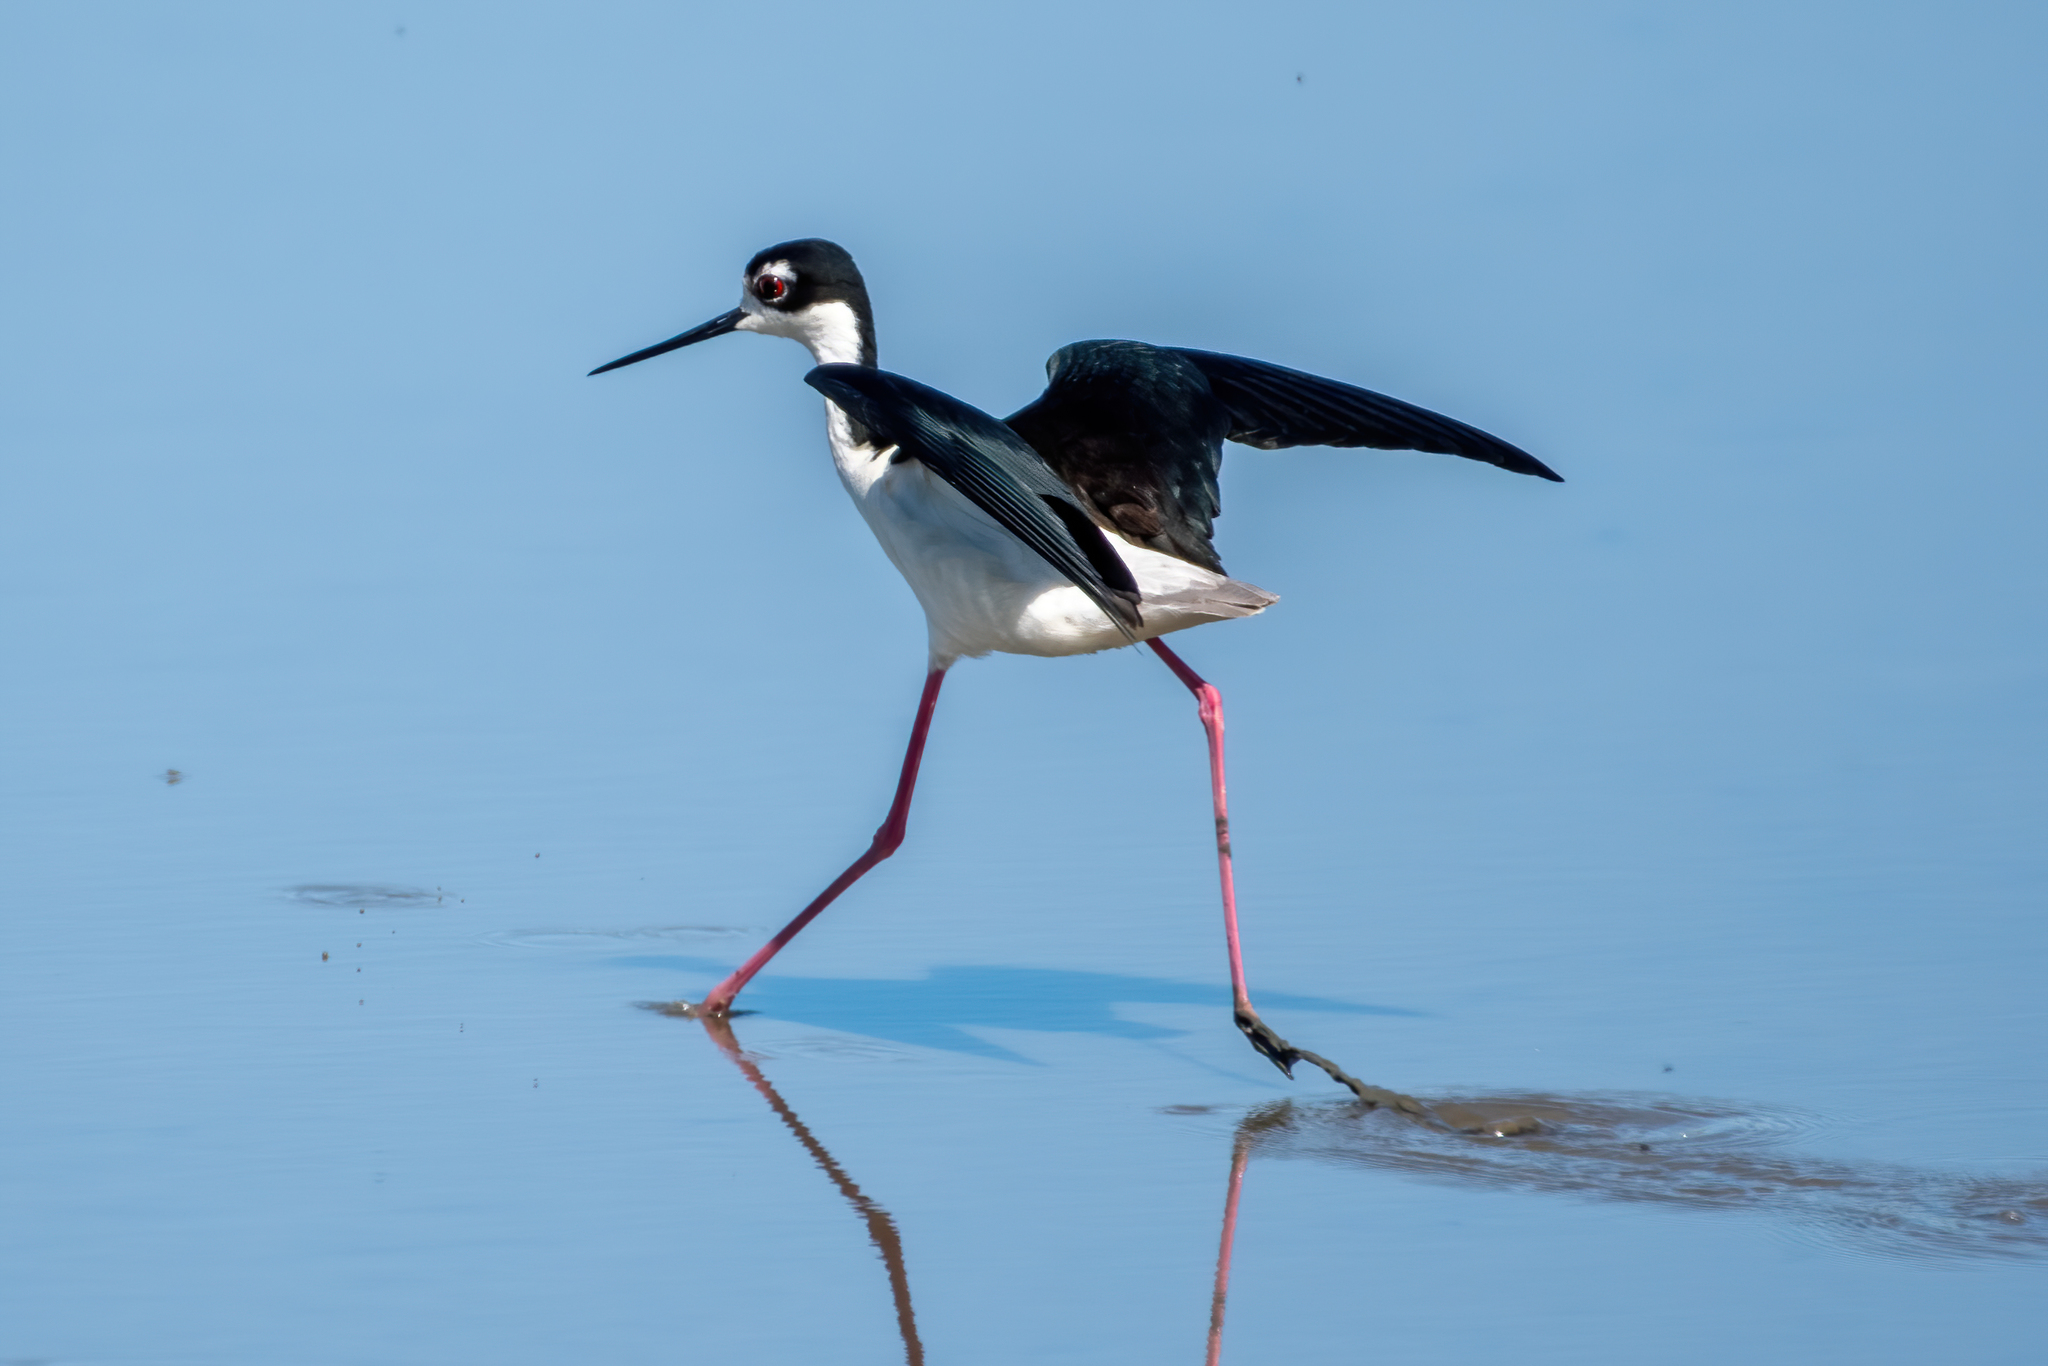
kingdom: Animalia
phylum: Chordata
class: Aves
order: Charadriiformes
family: Recurvirostridae
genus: Himantopus
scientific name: Himantopus mexicanus
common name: Black-necked stilt
